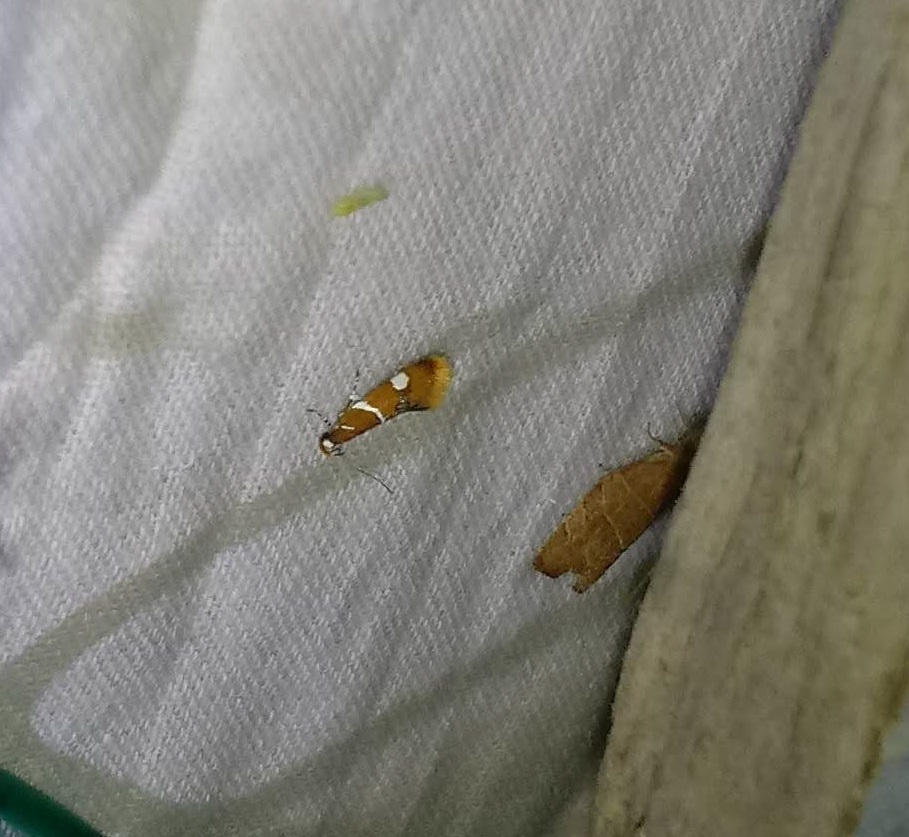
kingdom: Animalia
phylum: Arthropoda
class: Insecta
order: Lepidoptera
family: Oecophoridae
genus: Promalactis
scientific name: Promalactis suzukiella
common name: Moth
